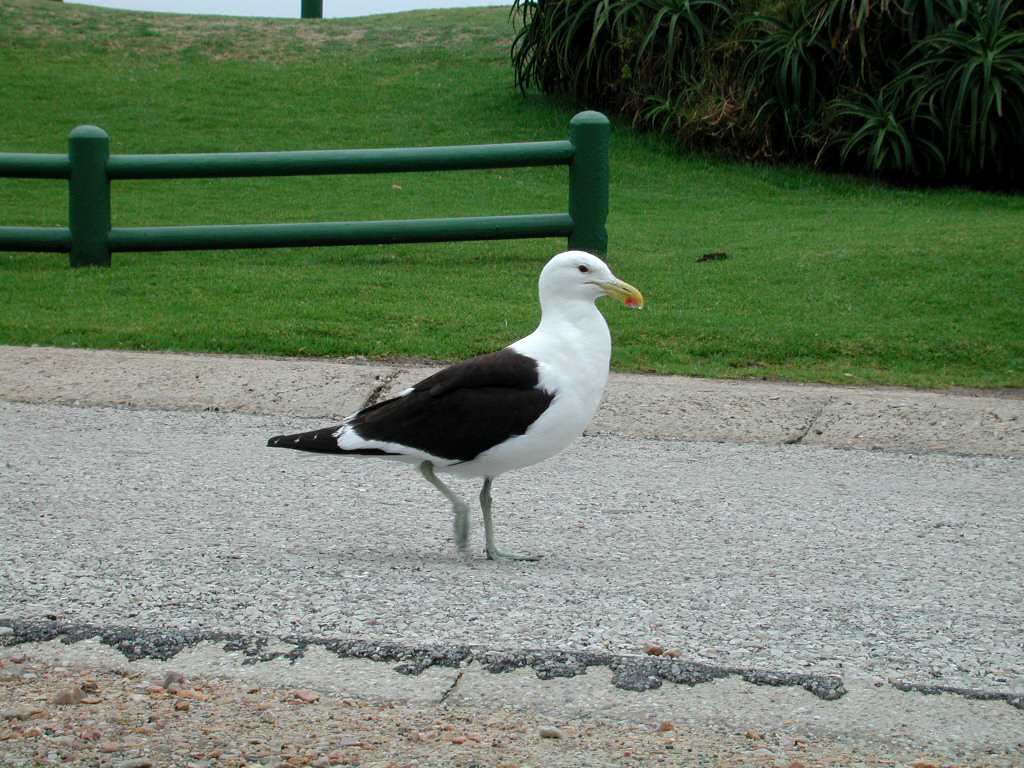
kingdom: Animalia
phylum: Chordata
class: Aves
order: Charadriiformes
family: Laridae
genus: Larus
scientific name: Larus dominicanus
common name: Kelp gull
